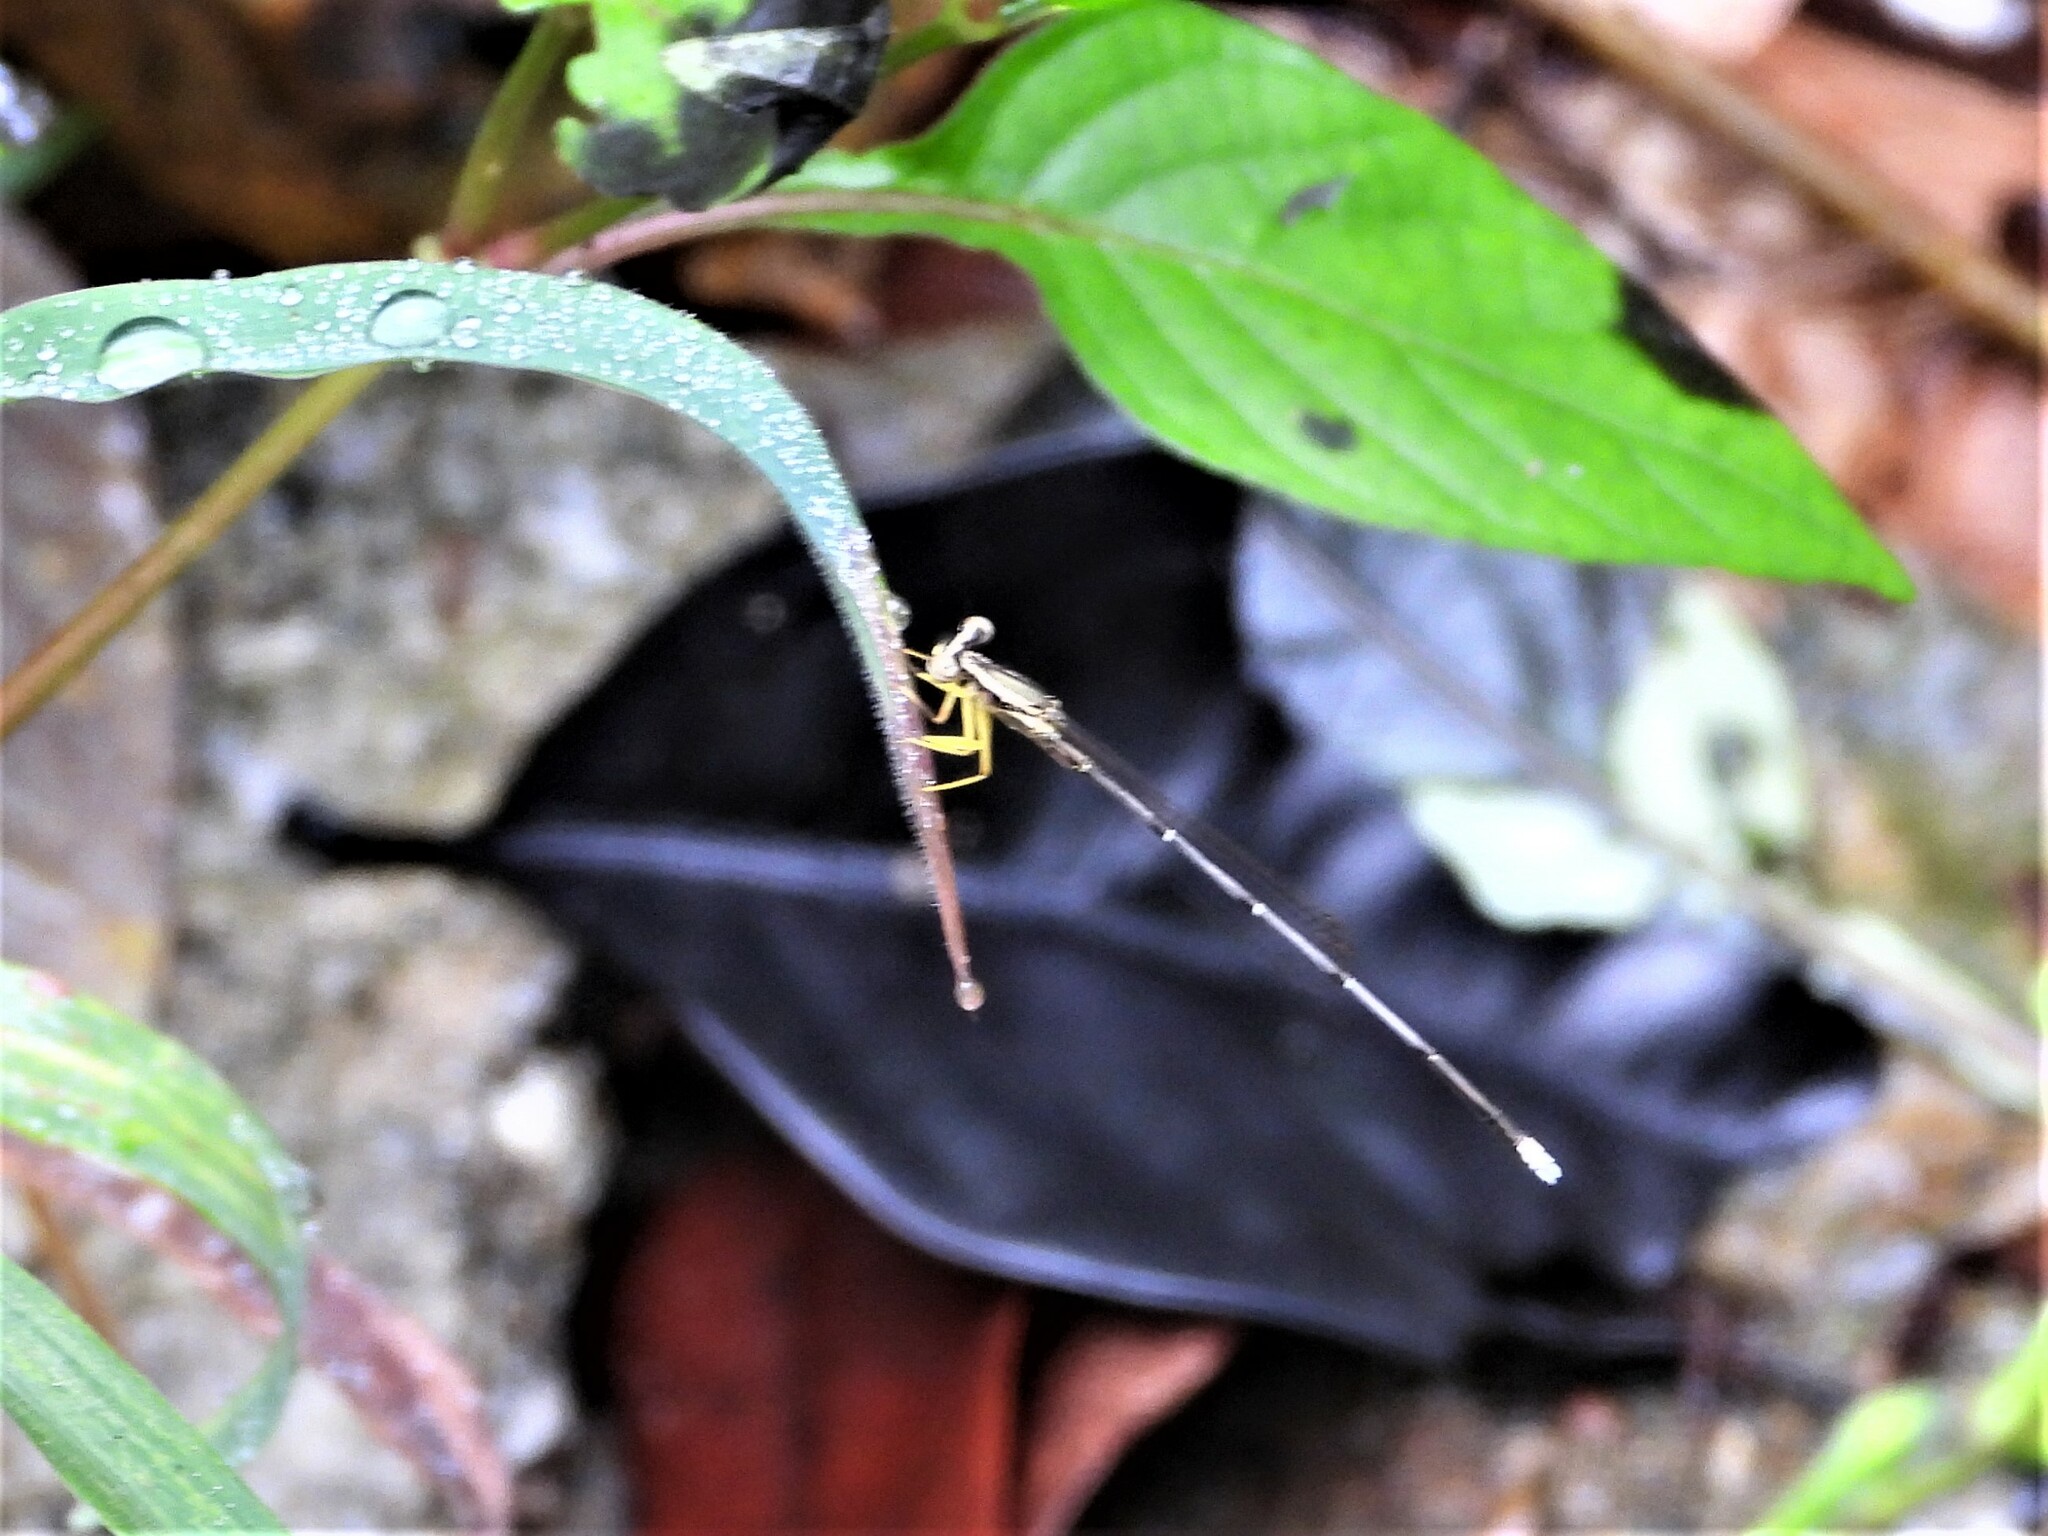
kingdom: Animalia
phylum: Arthropoda
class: Insecta
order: Odonata
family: Platycnemididae
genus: Copera
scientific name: Copera marginipes
